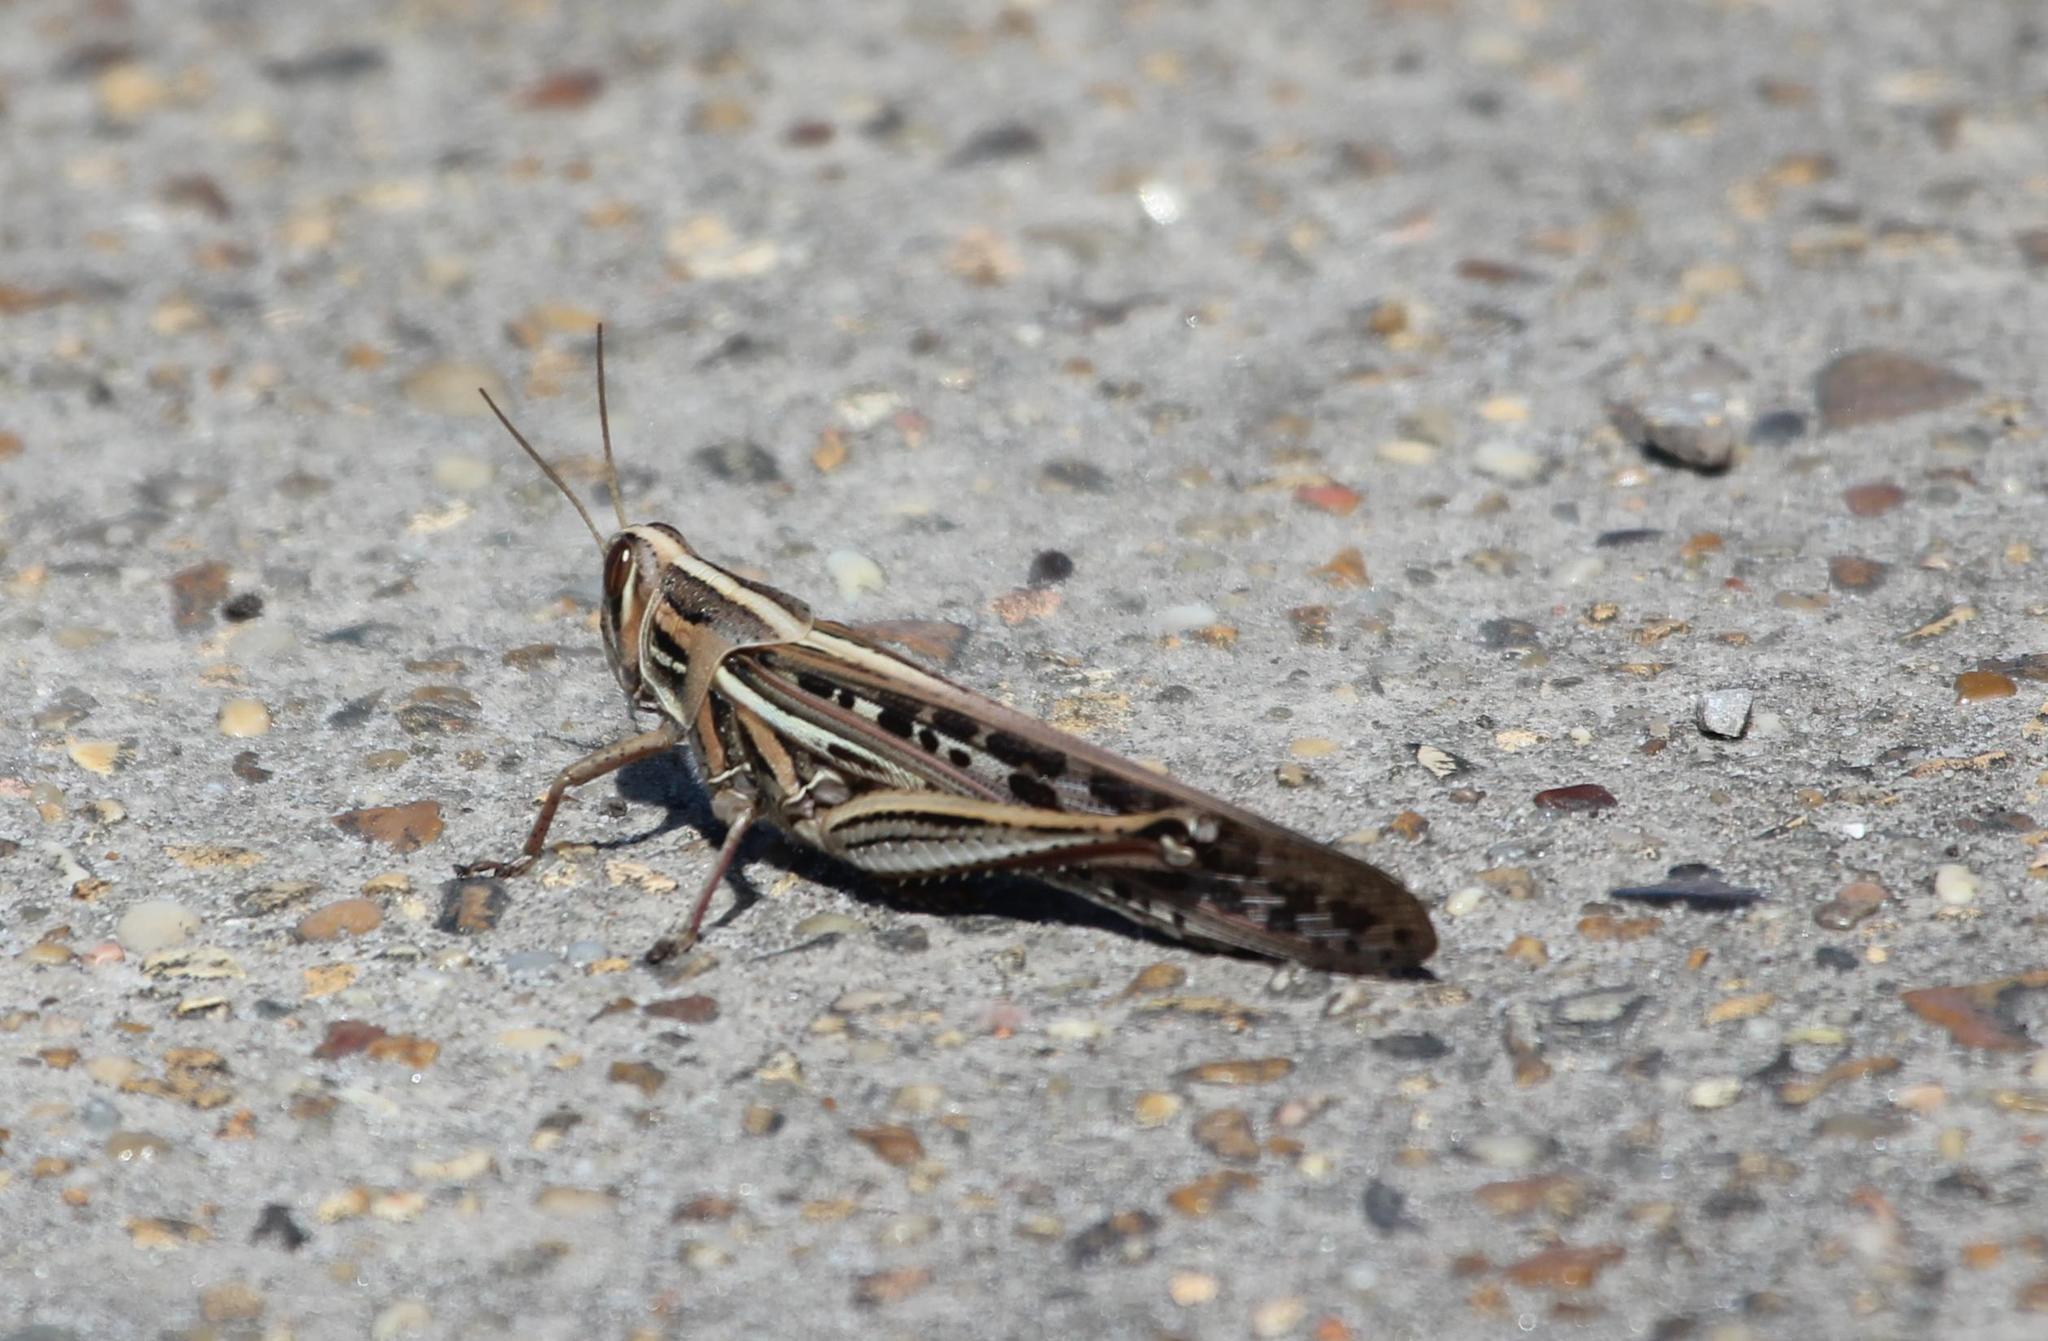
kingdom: Animalia
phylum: Arthropoda
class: Insecta
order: Orthoptera
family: Acrididae
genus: Schistocerca
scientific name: Schistocerca americana
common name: American bird locust
